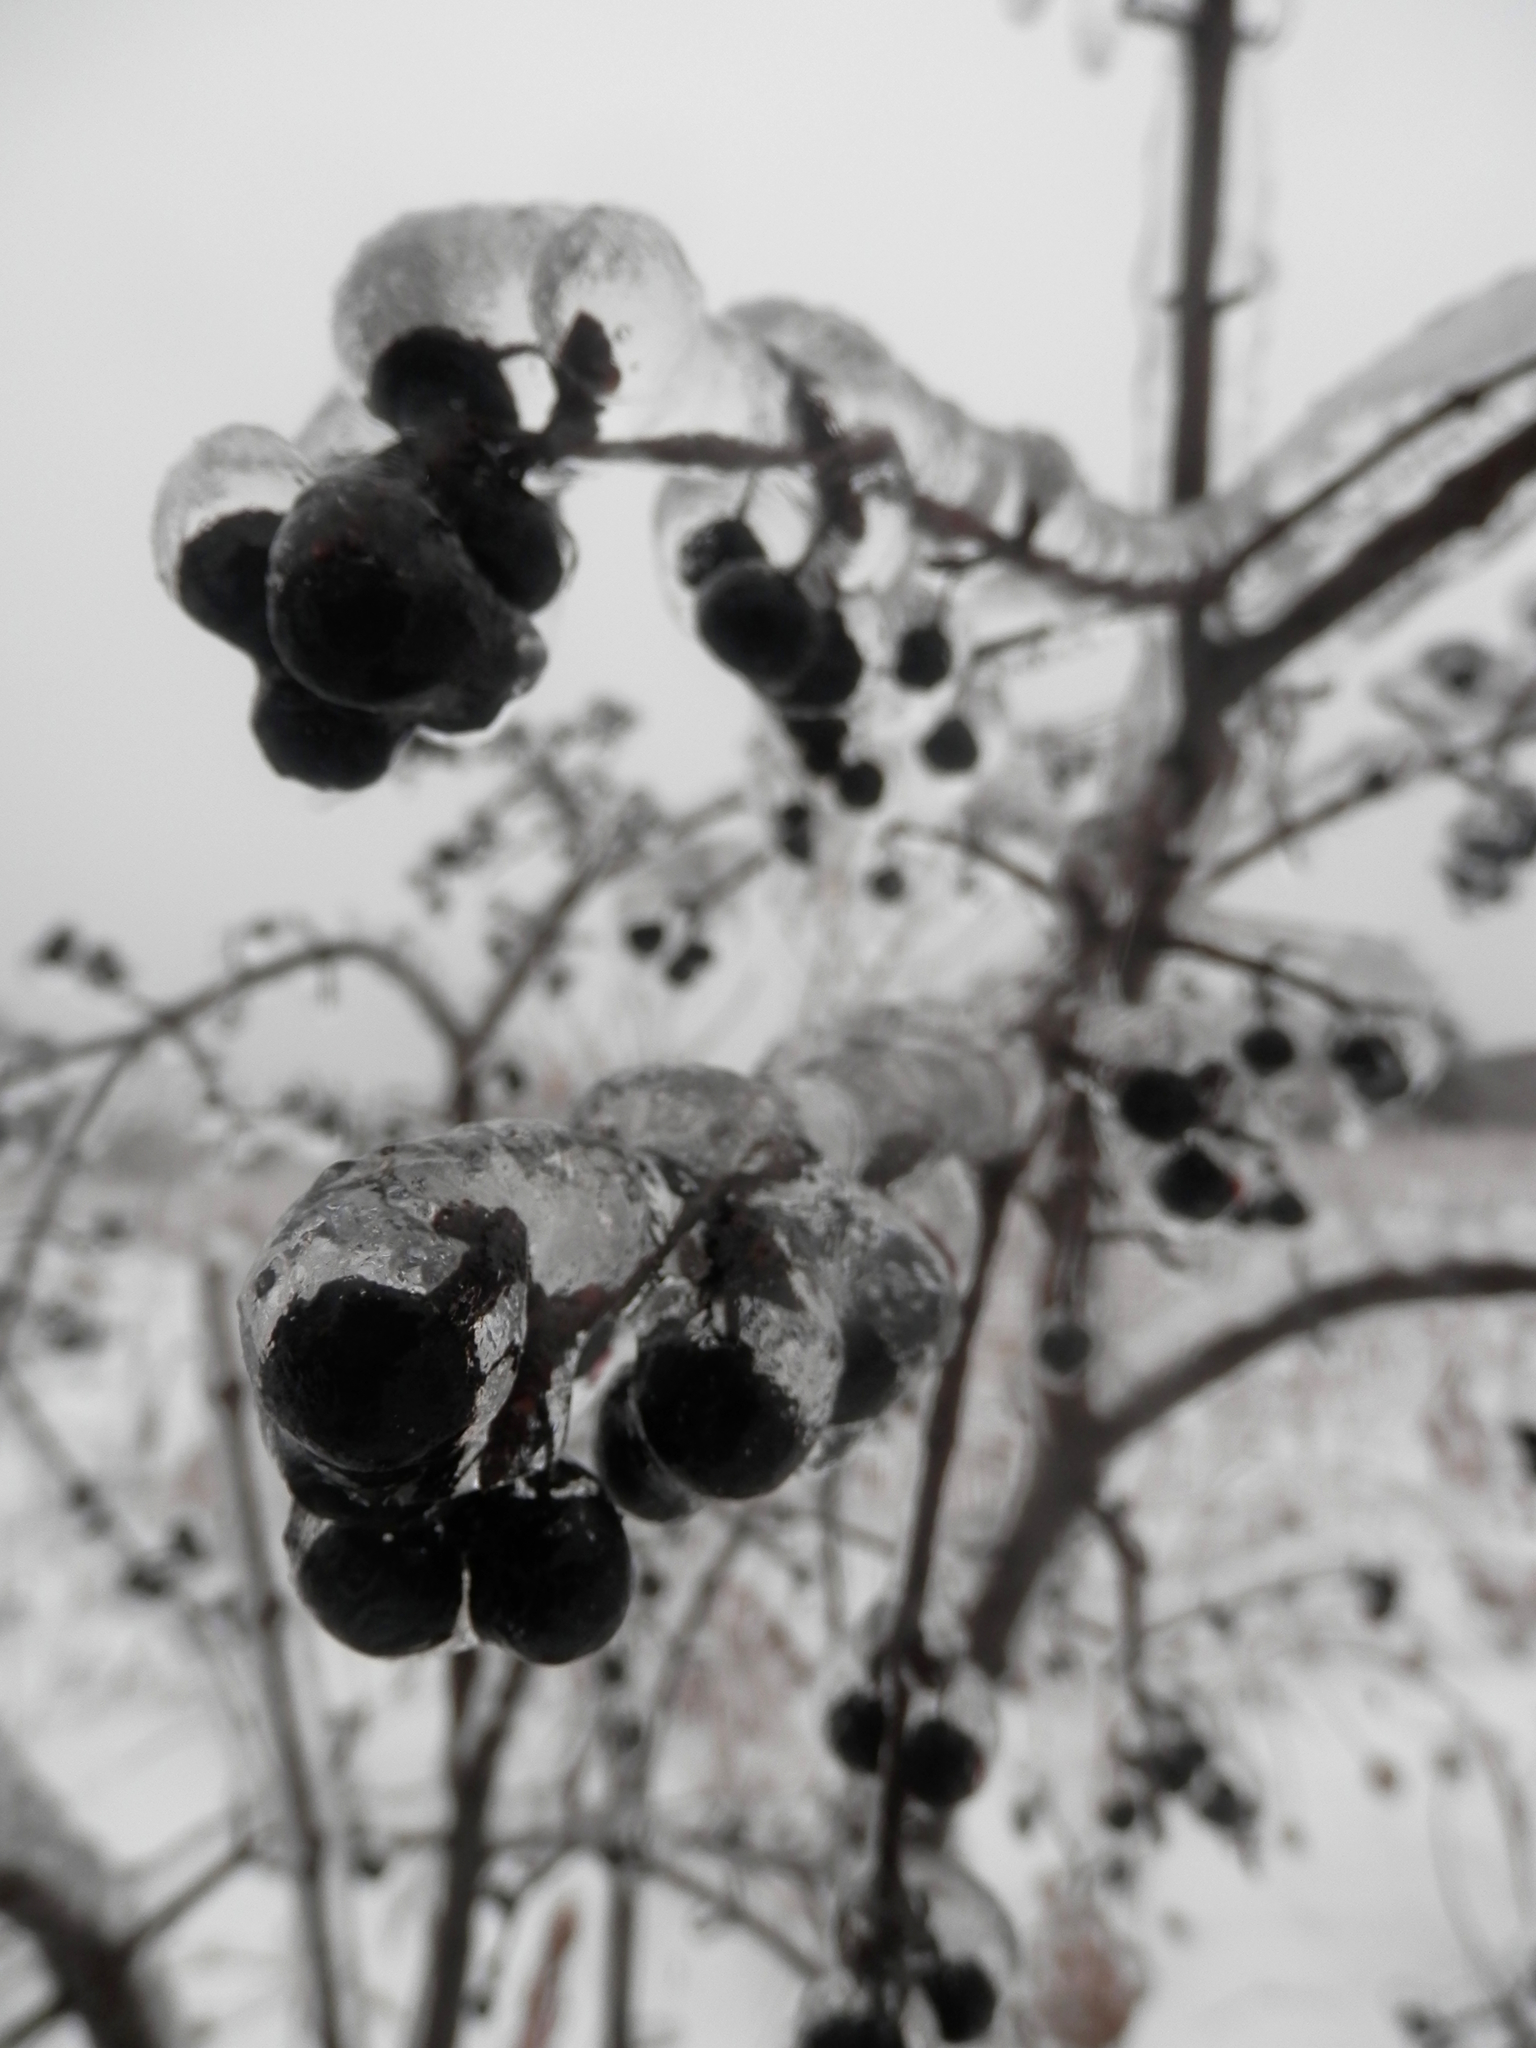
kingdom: Plantae
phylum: Tracheophyta
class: Magnoliopsida
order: Rosales
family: Rhamnaceae
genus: Rhamnus
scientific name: Rhamnus cathartica
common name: Common buckthorn
